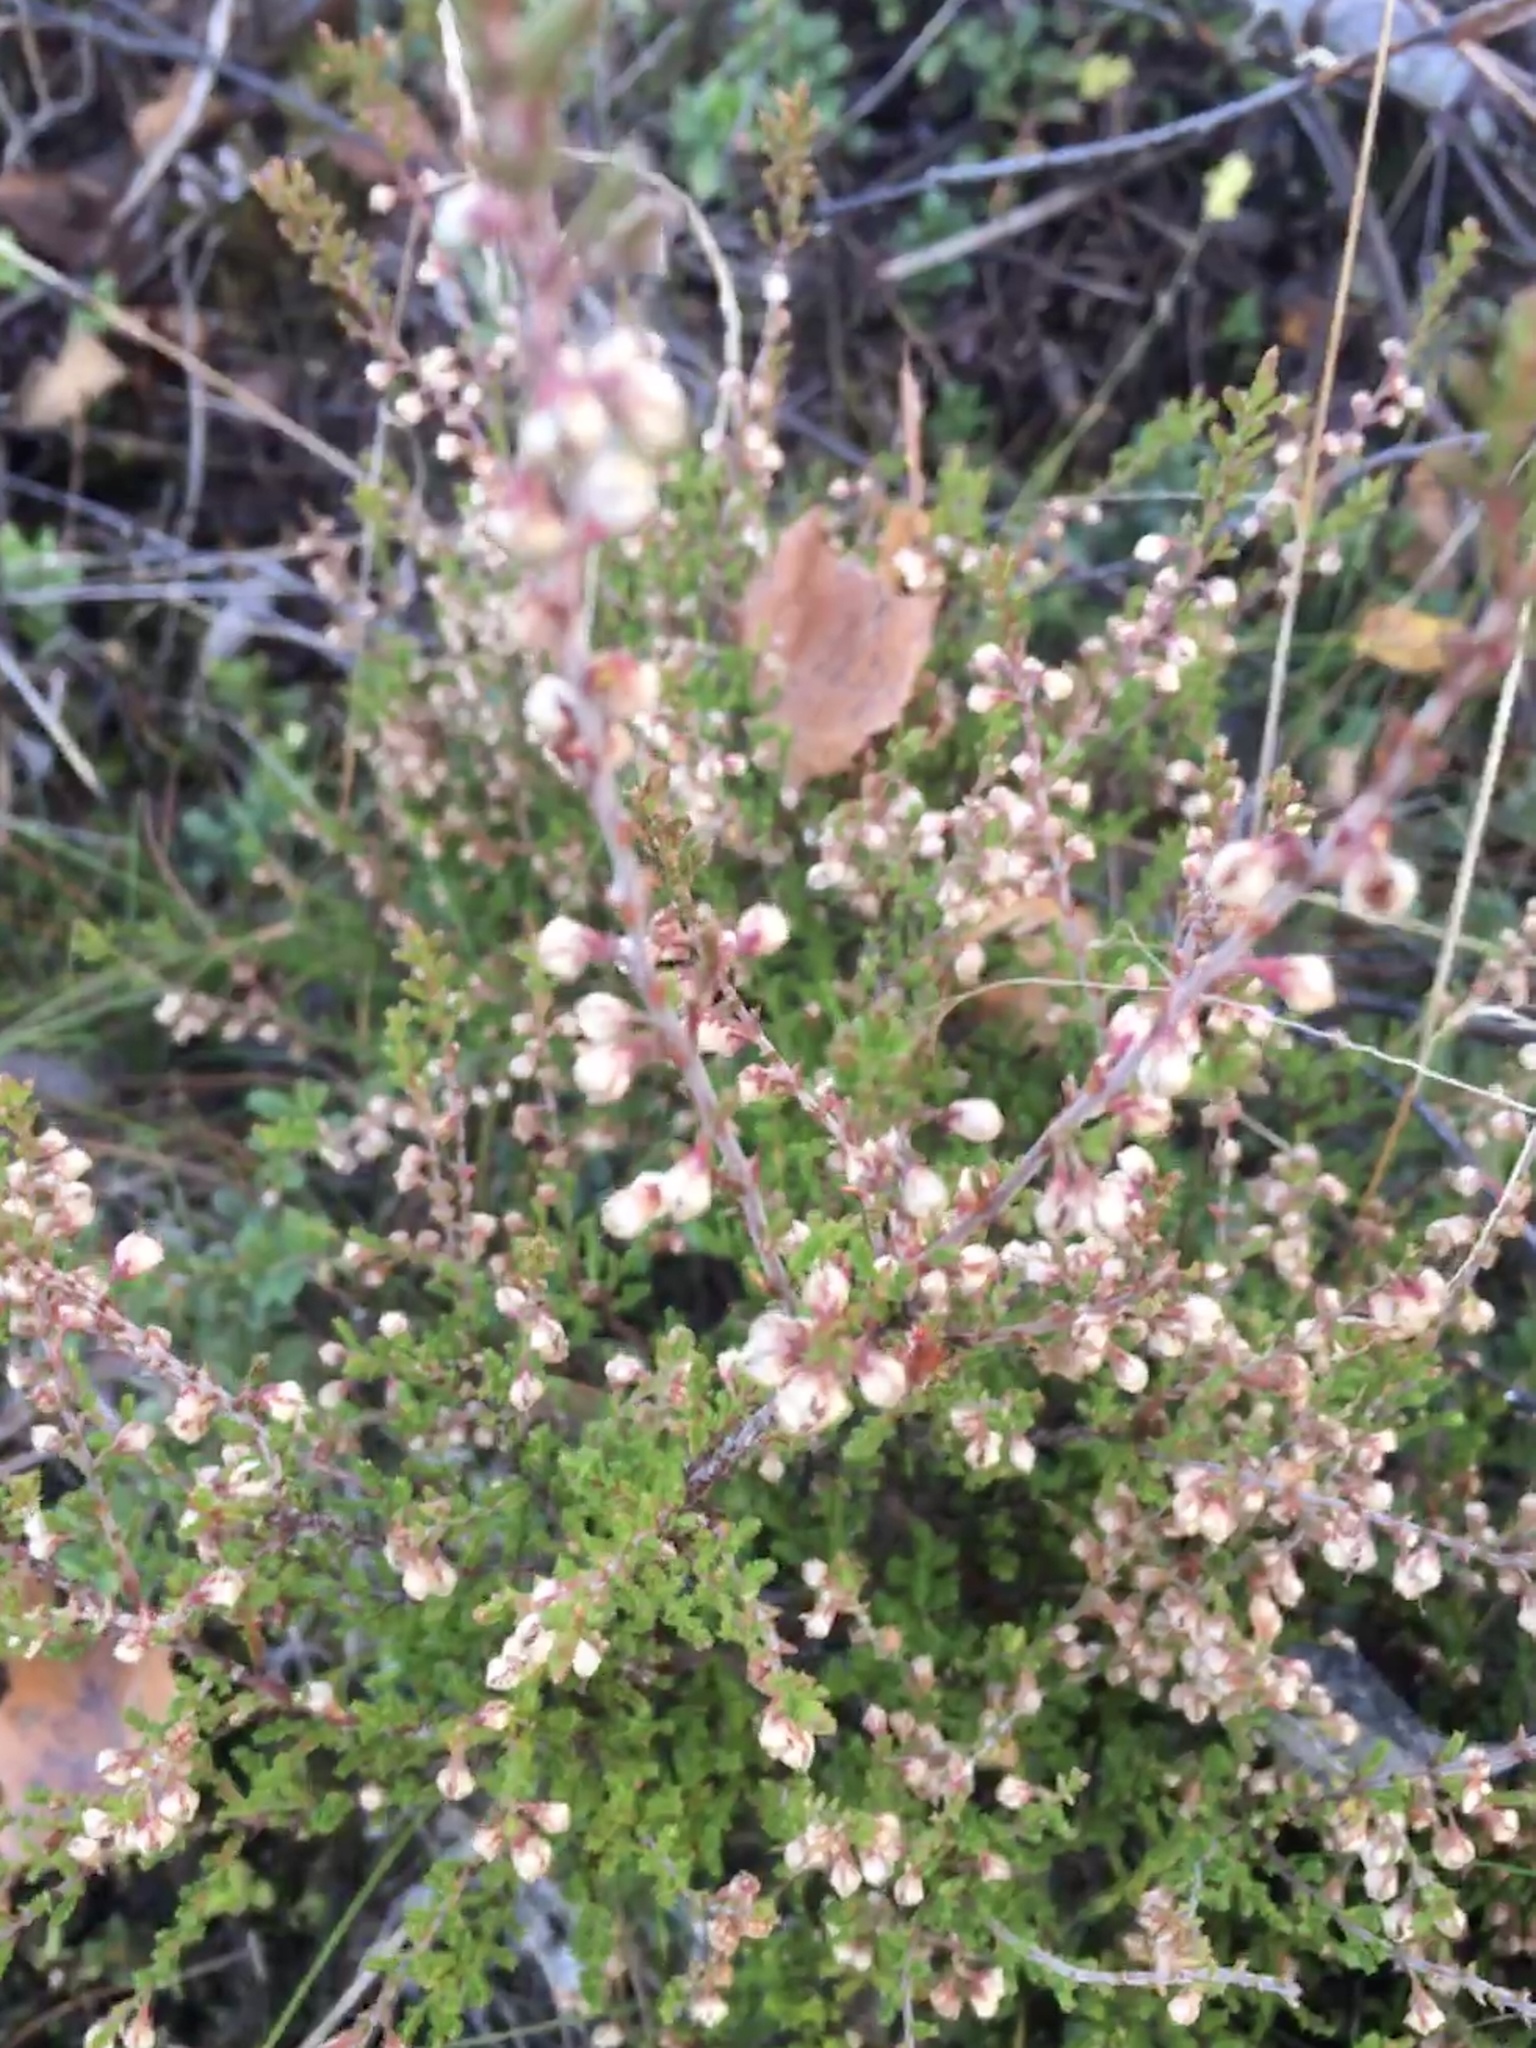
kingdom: Plantae
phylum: Tracheophyta
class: Magnoliopsida
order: Ericales
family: Ericaceae
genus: Calluna
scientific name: Calluna vulgaris
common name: Heather
